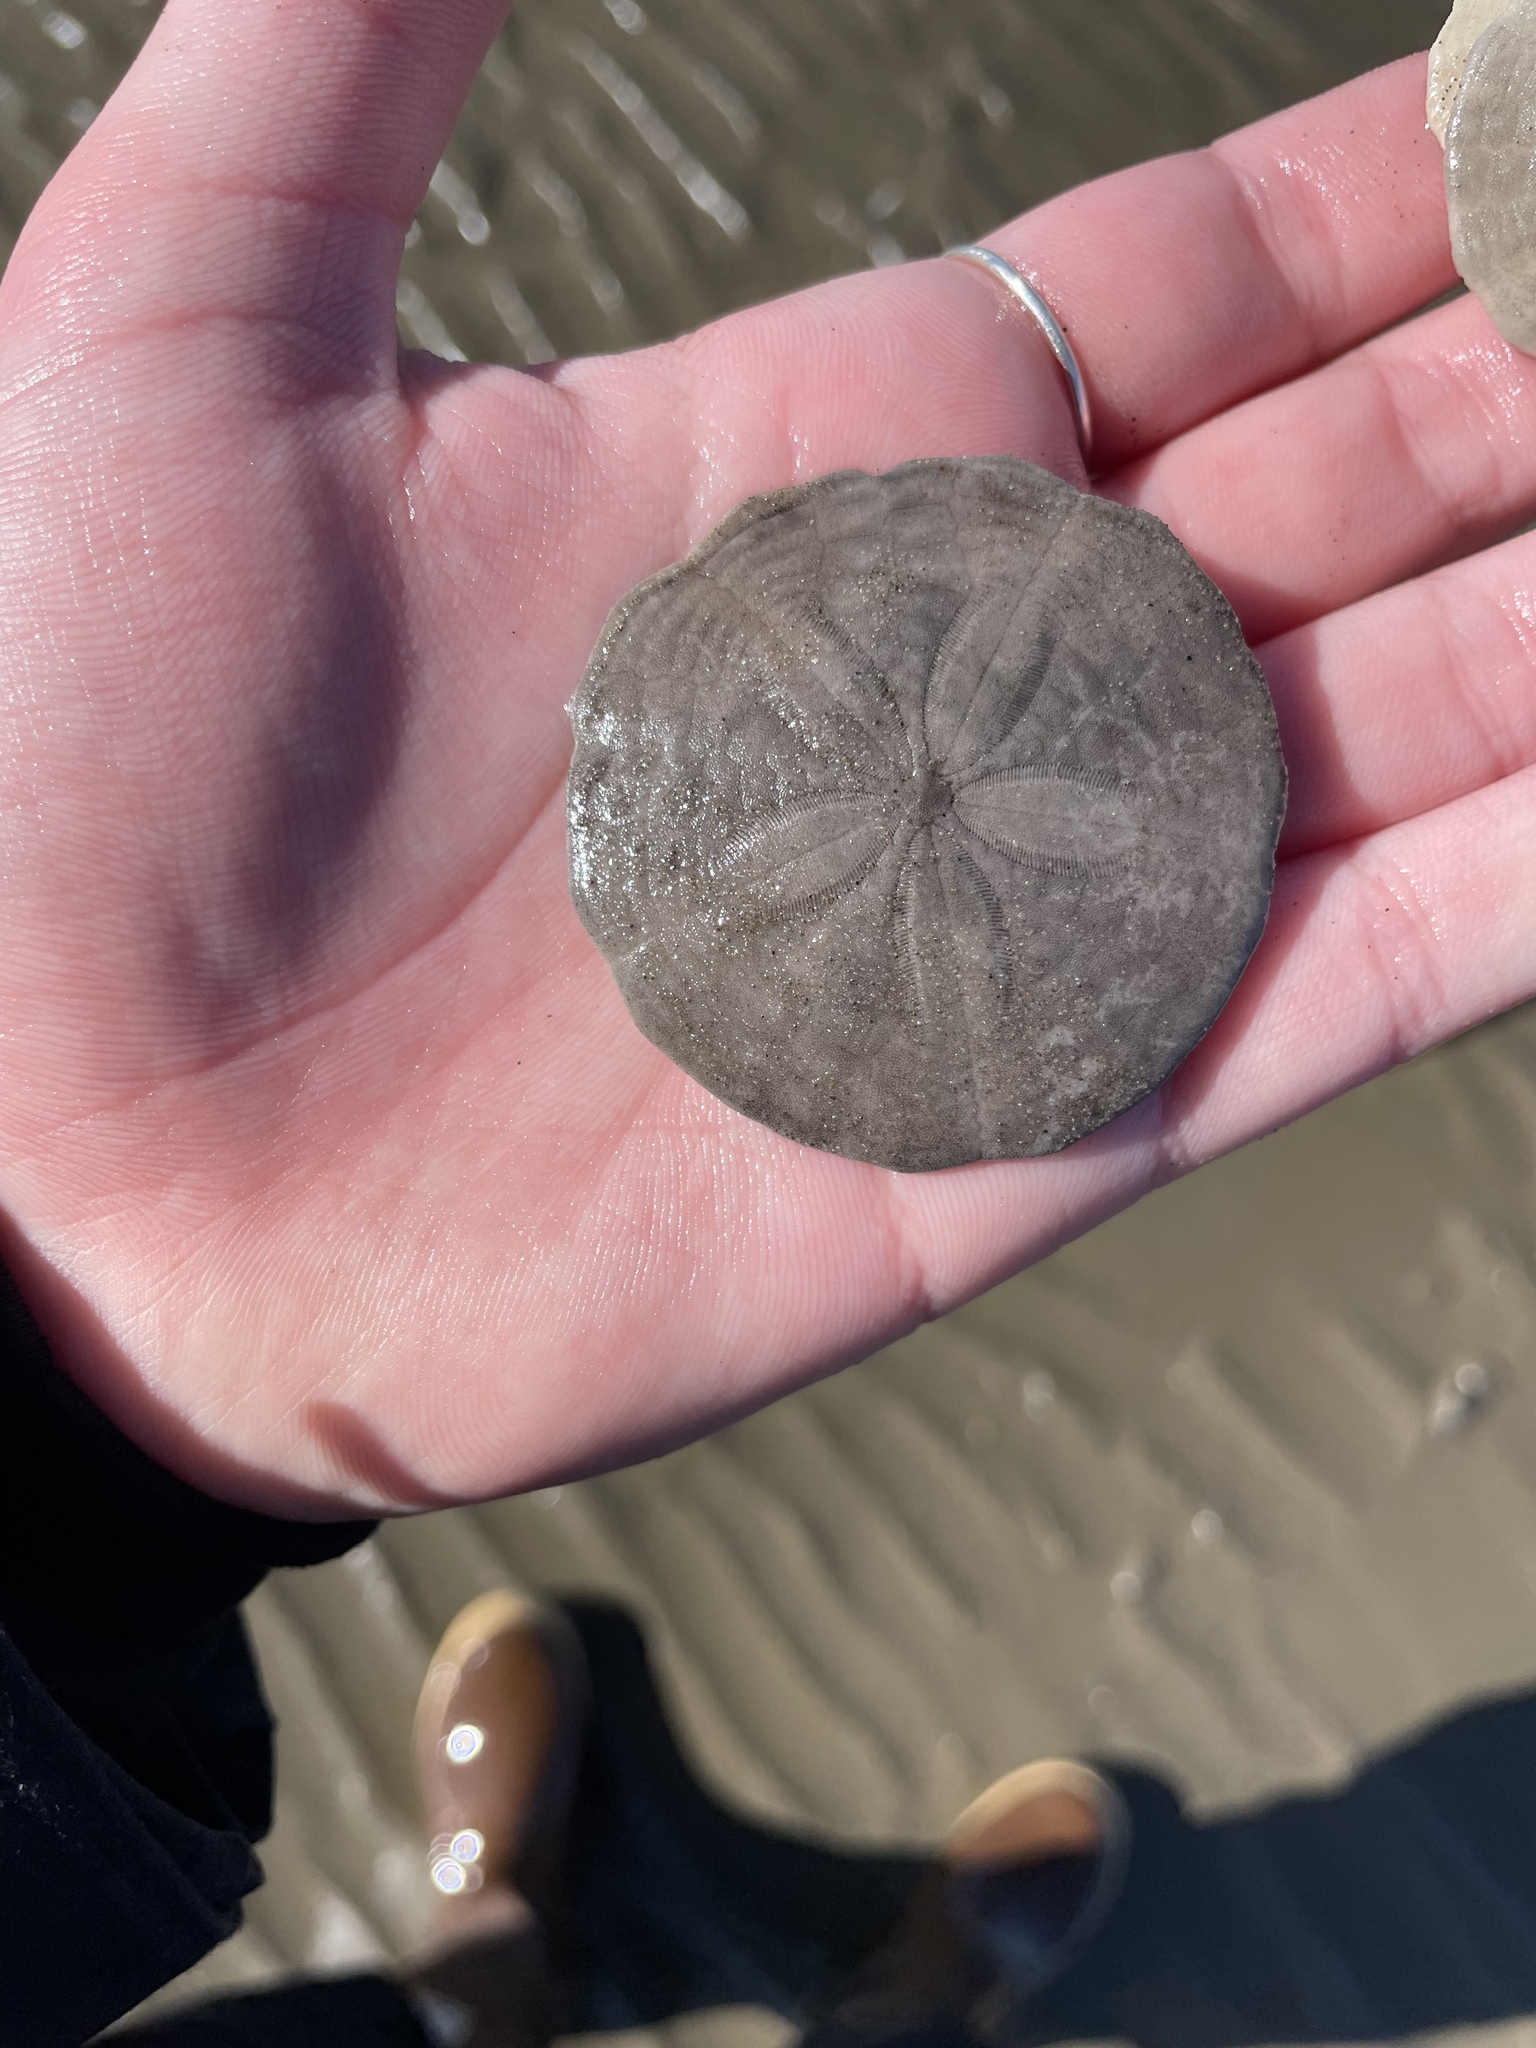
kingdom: Animalia
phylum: Echinodermata
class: Echinoidea
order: Echinolampadacea
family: Echinarachniidae
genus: Echinarachnius
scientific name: Echinarachnius parma
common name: Common sand dollar
